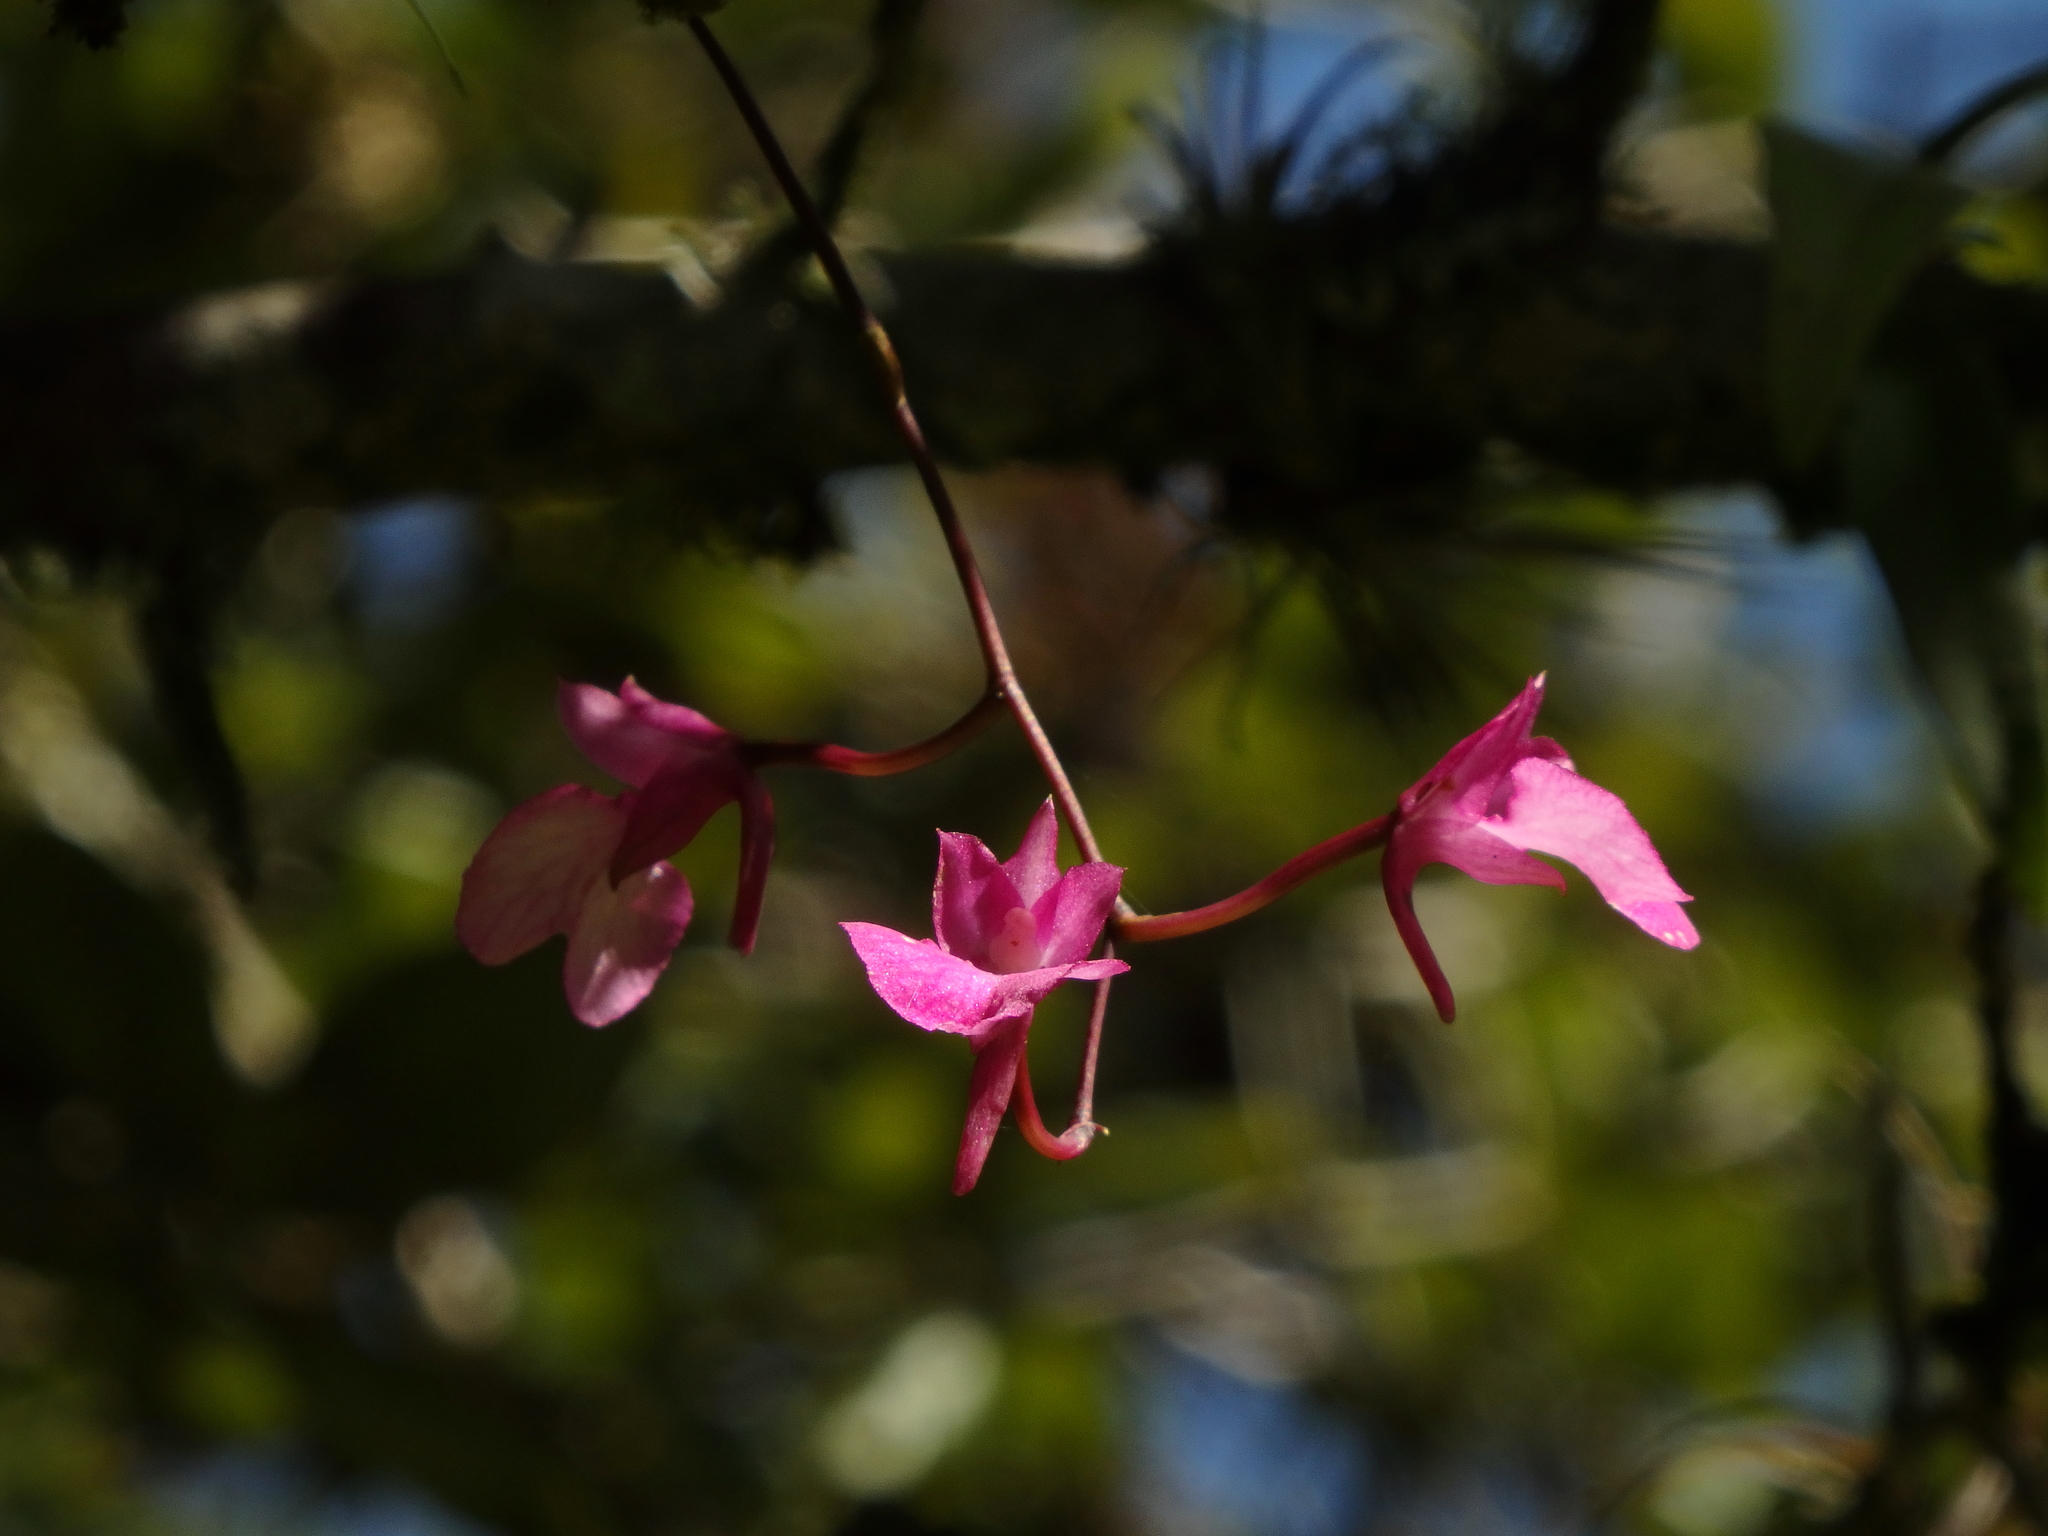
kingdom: Plantae
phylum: Tracheophyta
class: Liliopsida
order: Asparagales
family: Orchidaceae
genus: Comparettia
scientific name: Comparettia falcata
